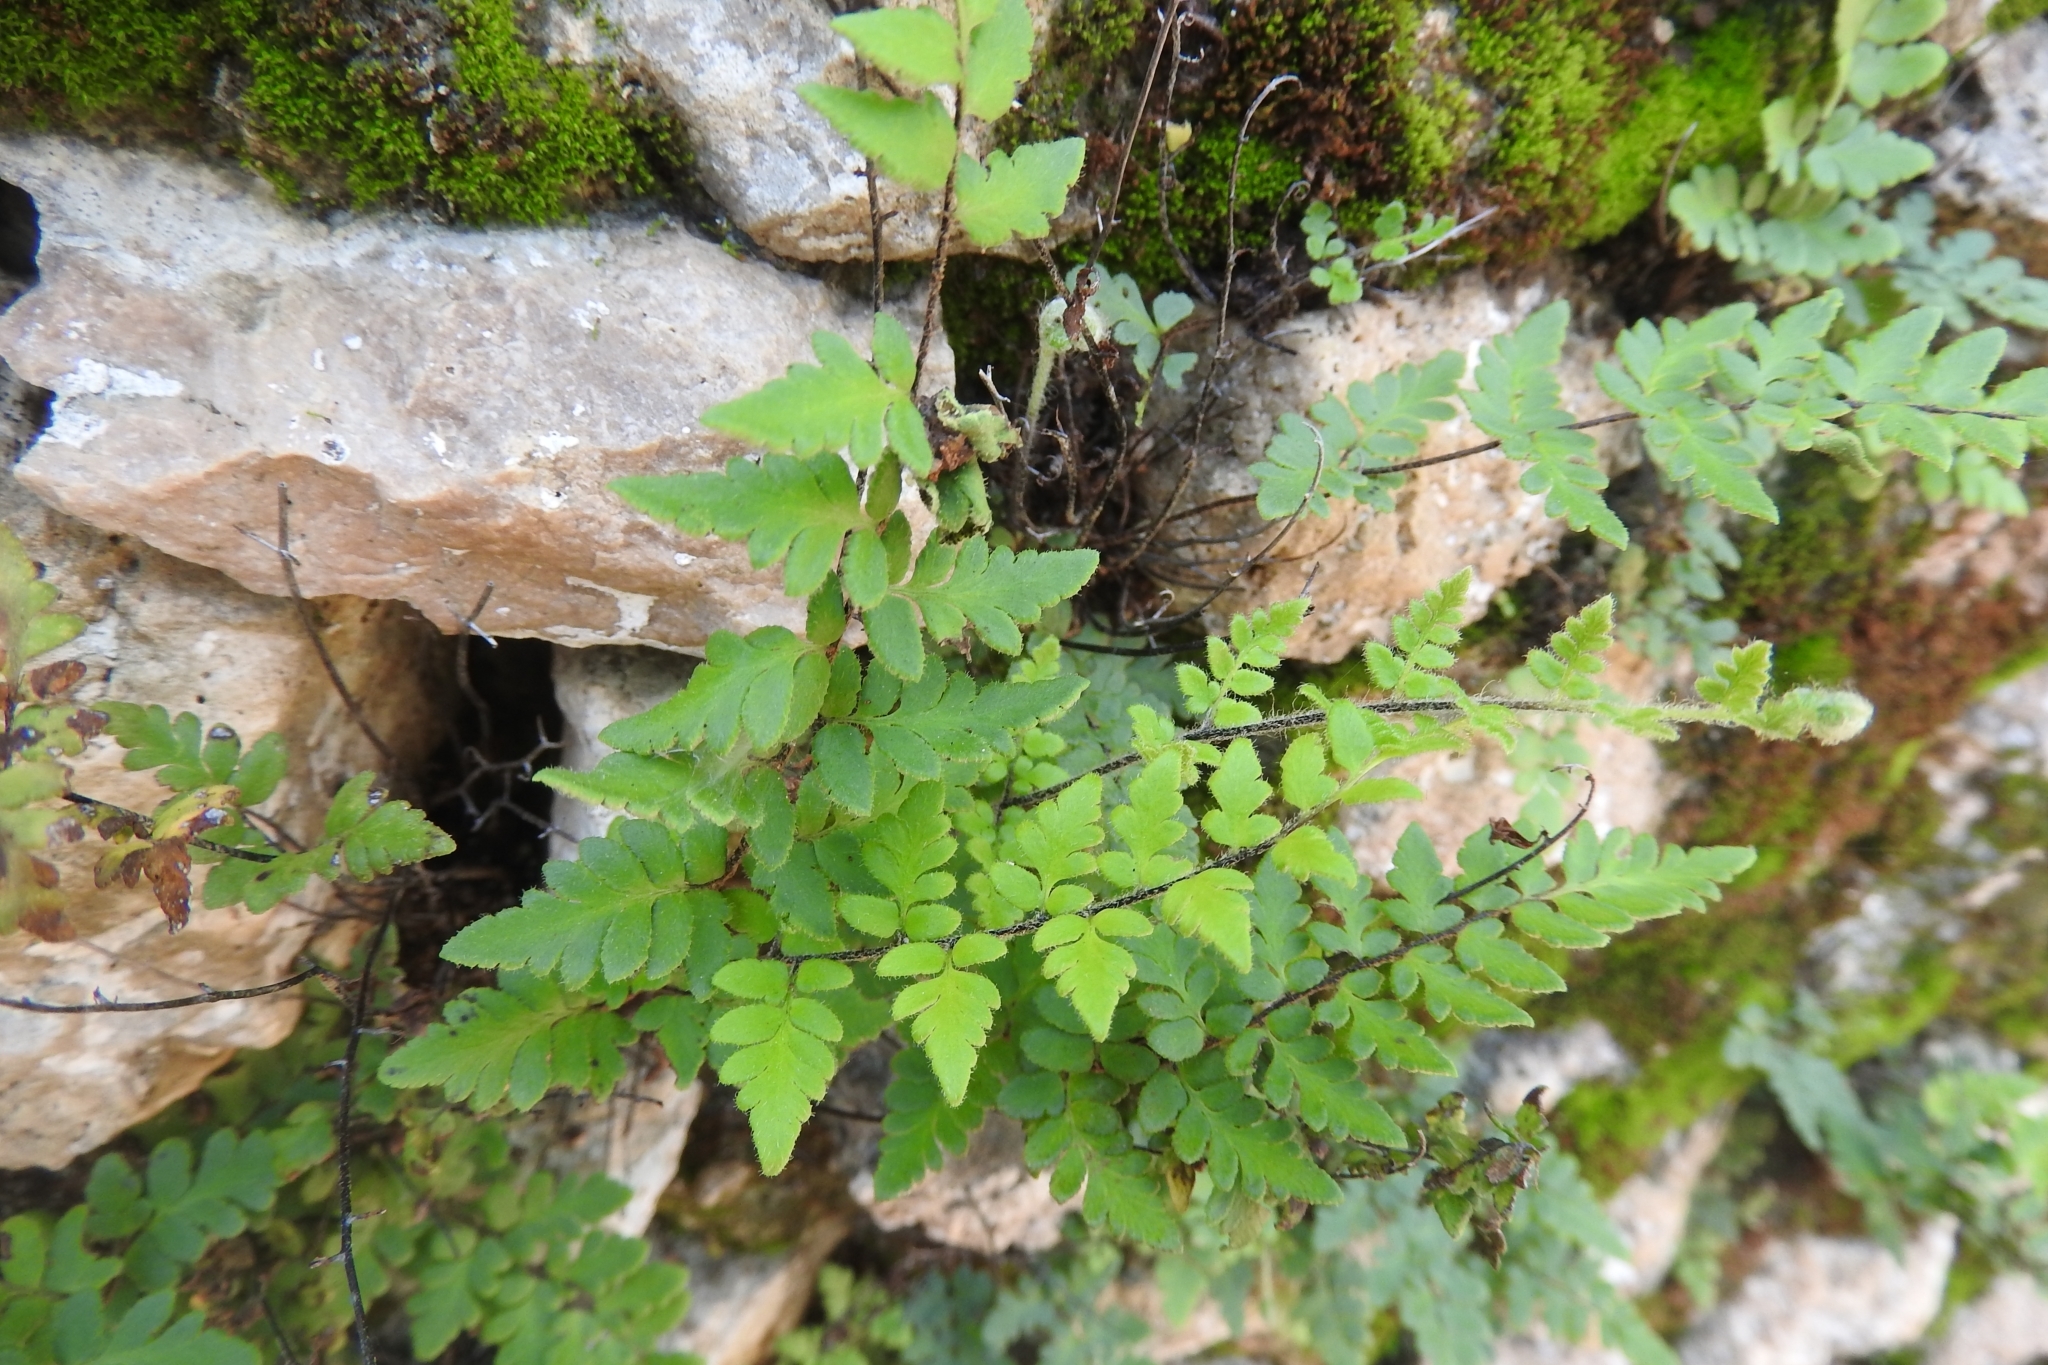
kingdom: Plantae
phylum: Tracheophyta
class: Polypodiopsida
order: Polypodiales
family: Pteridaceae
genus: Myriopteris
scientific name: Myriopteris scabra
